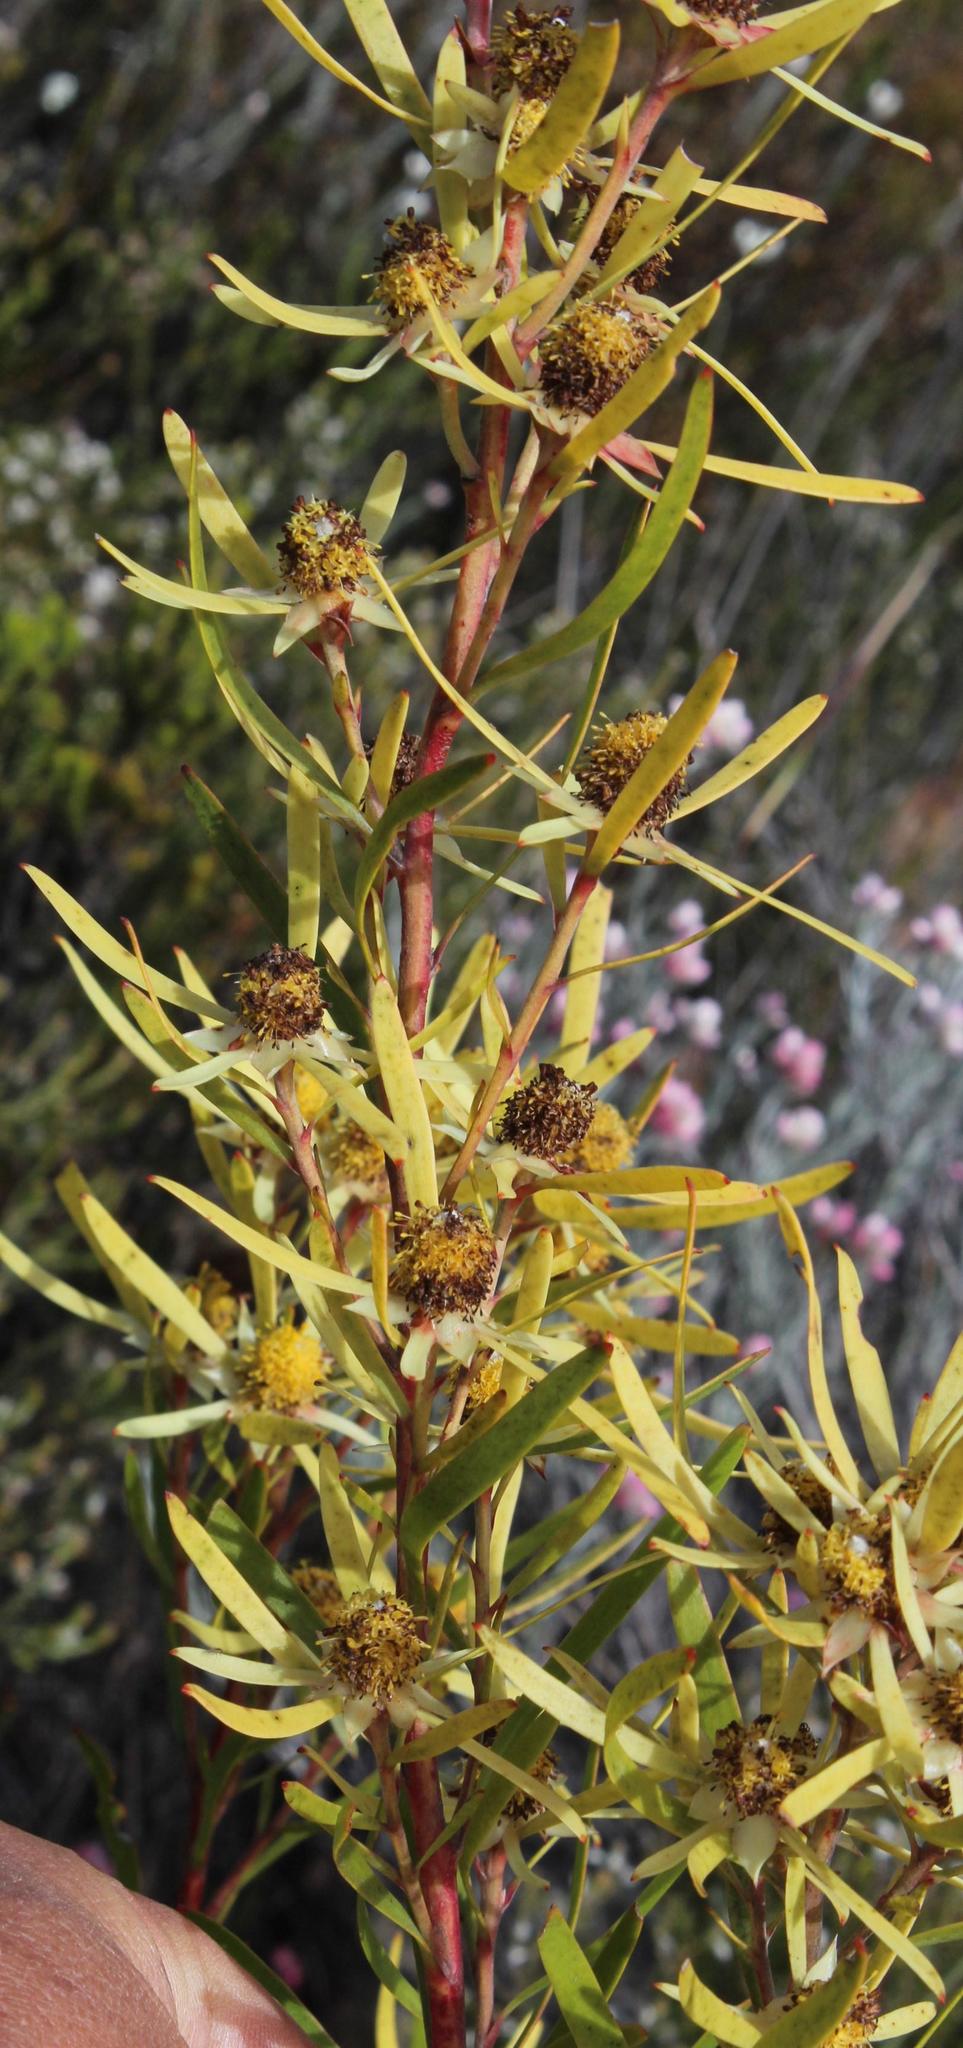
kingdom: Plantae
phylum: Tracheophyta
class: Magnoliopsida
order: Proteales
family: Proteaceae
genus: Leucadendron
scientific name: Leucadendron eucalyptifolium
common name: Gum-leaved conebush
